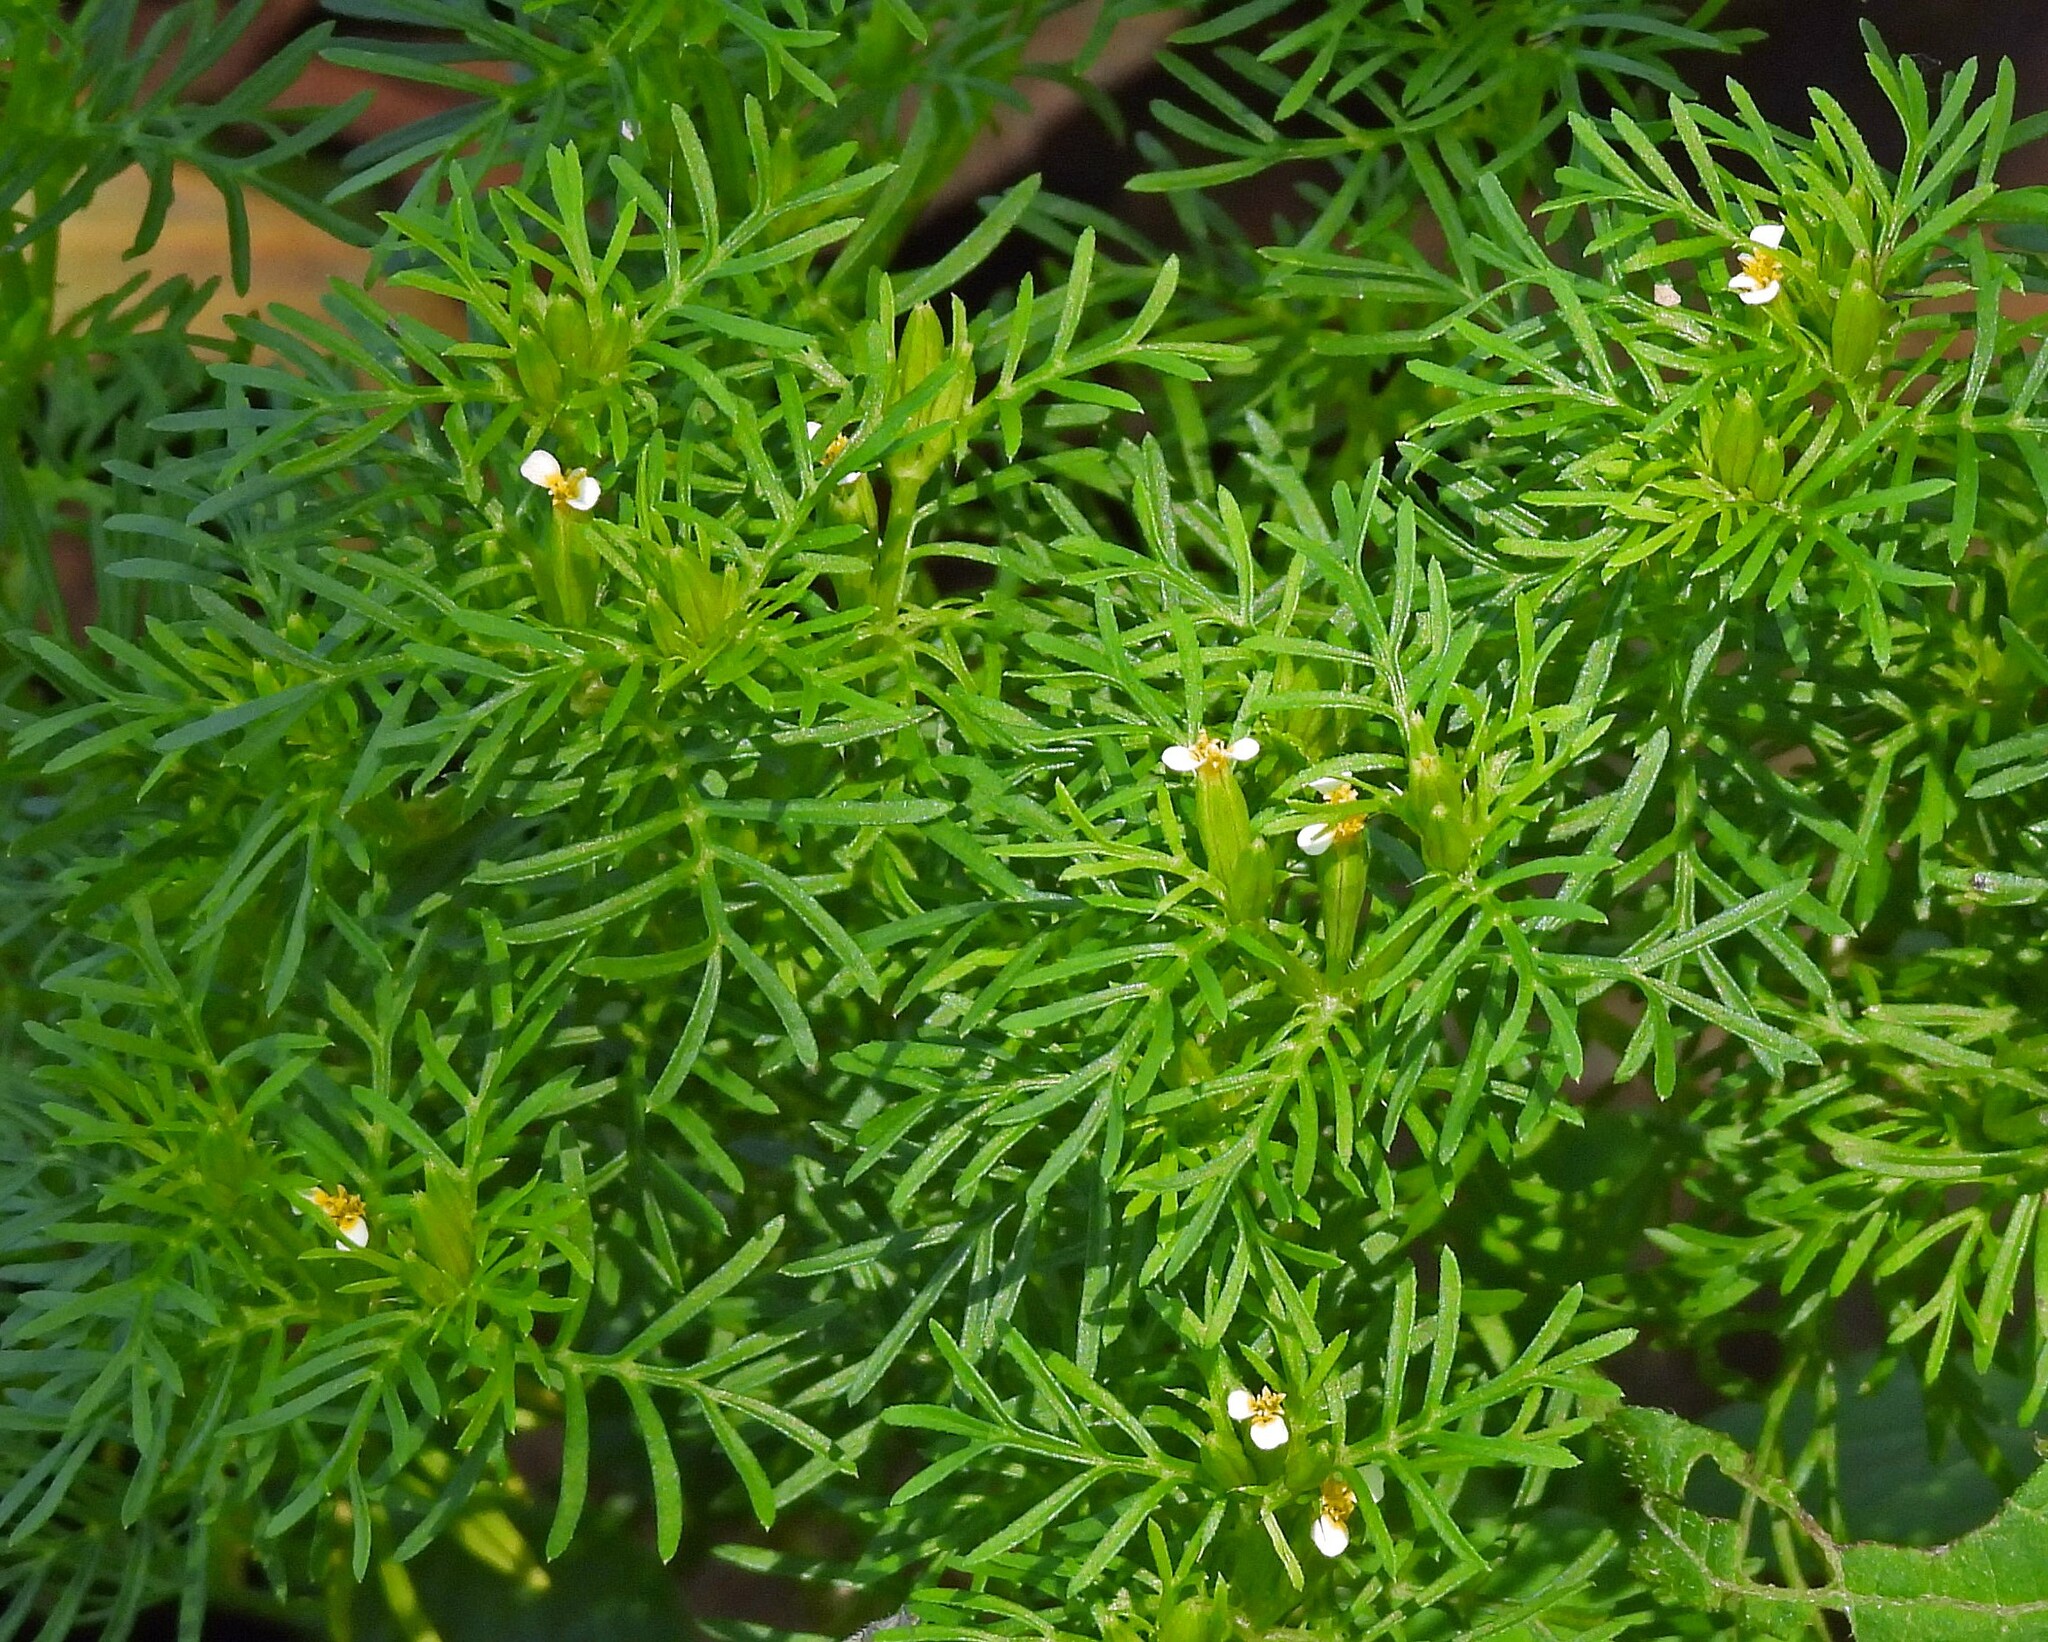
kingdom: Plantae
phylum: Tracheophyta
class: Magnoliopsida
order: Asterales
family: Asteraceae
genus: Tagetes
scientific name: Tagetes filifolia
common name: Lesser marigold
